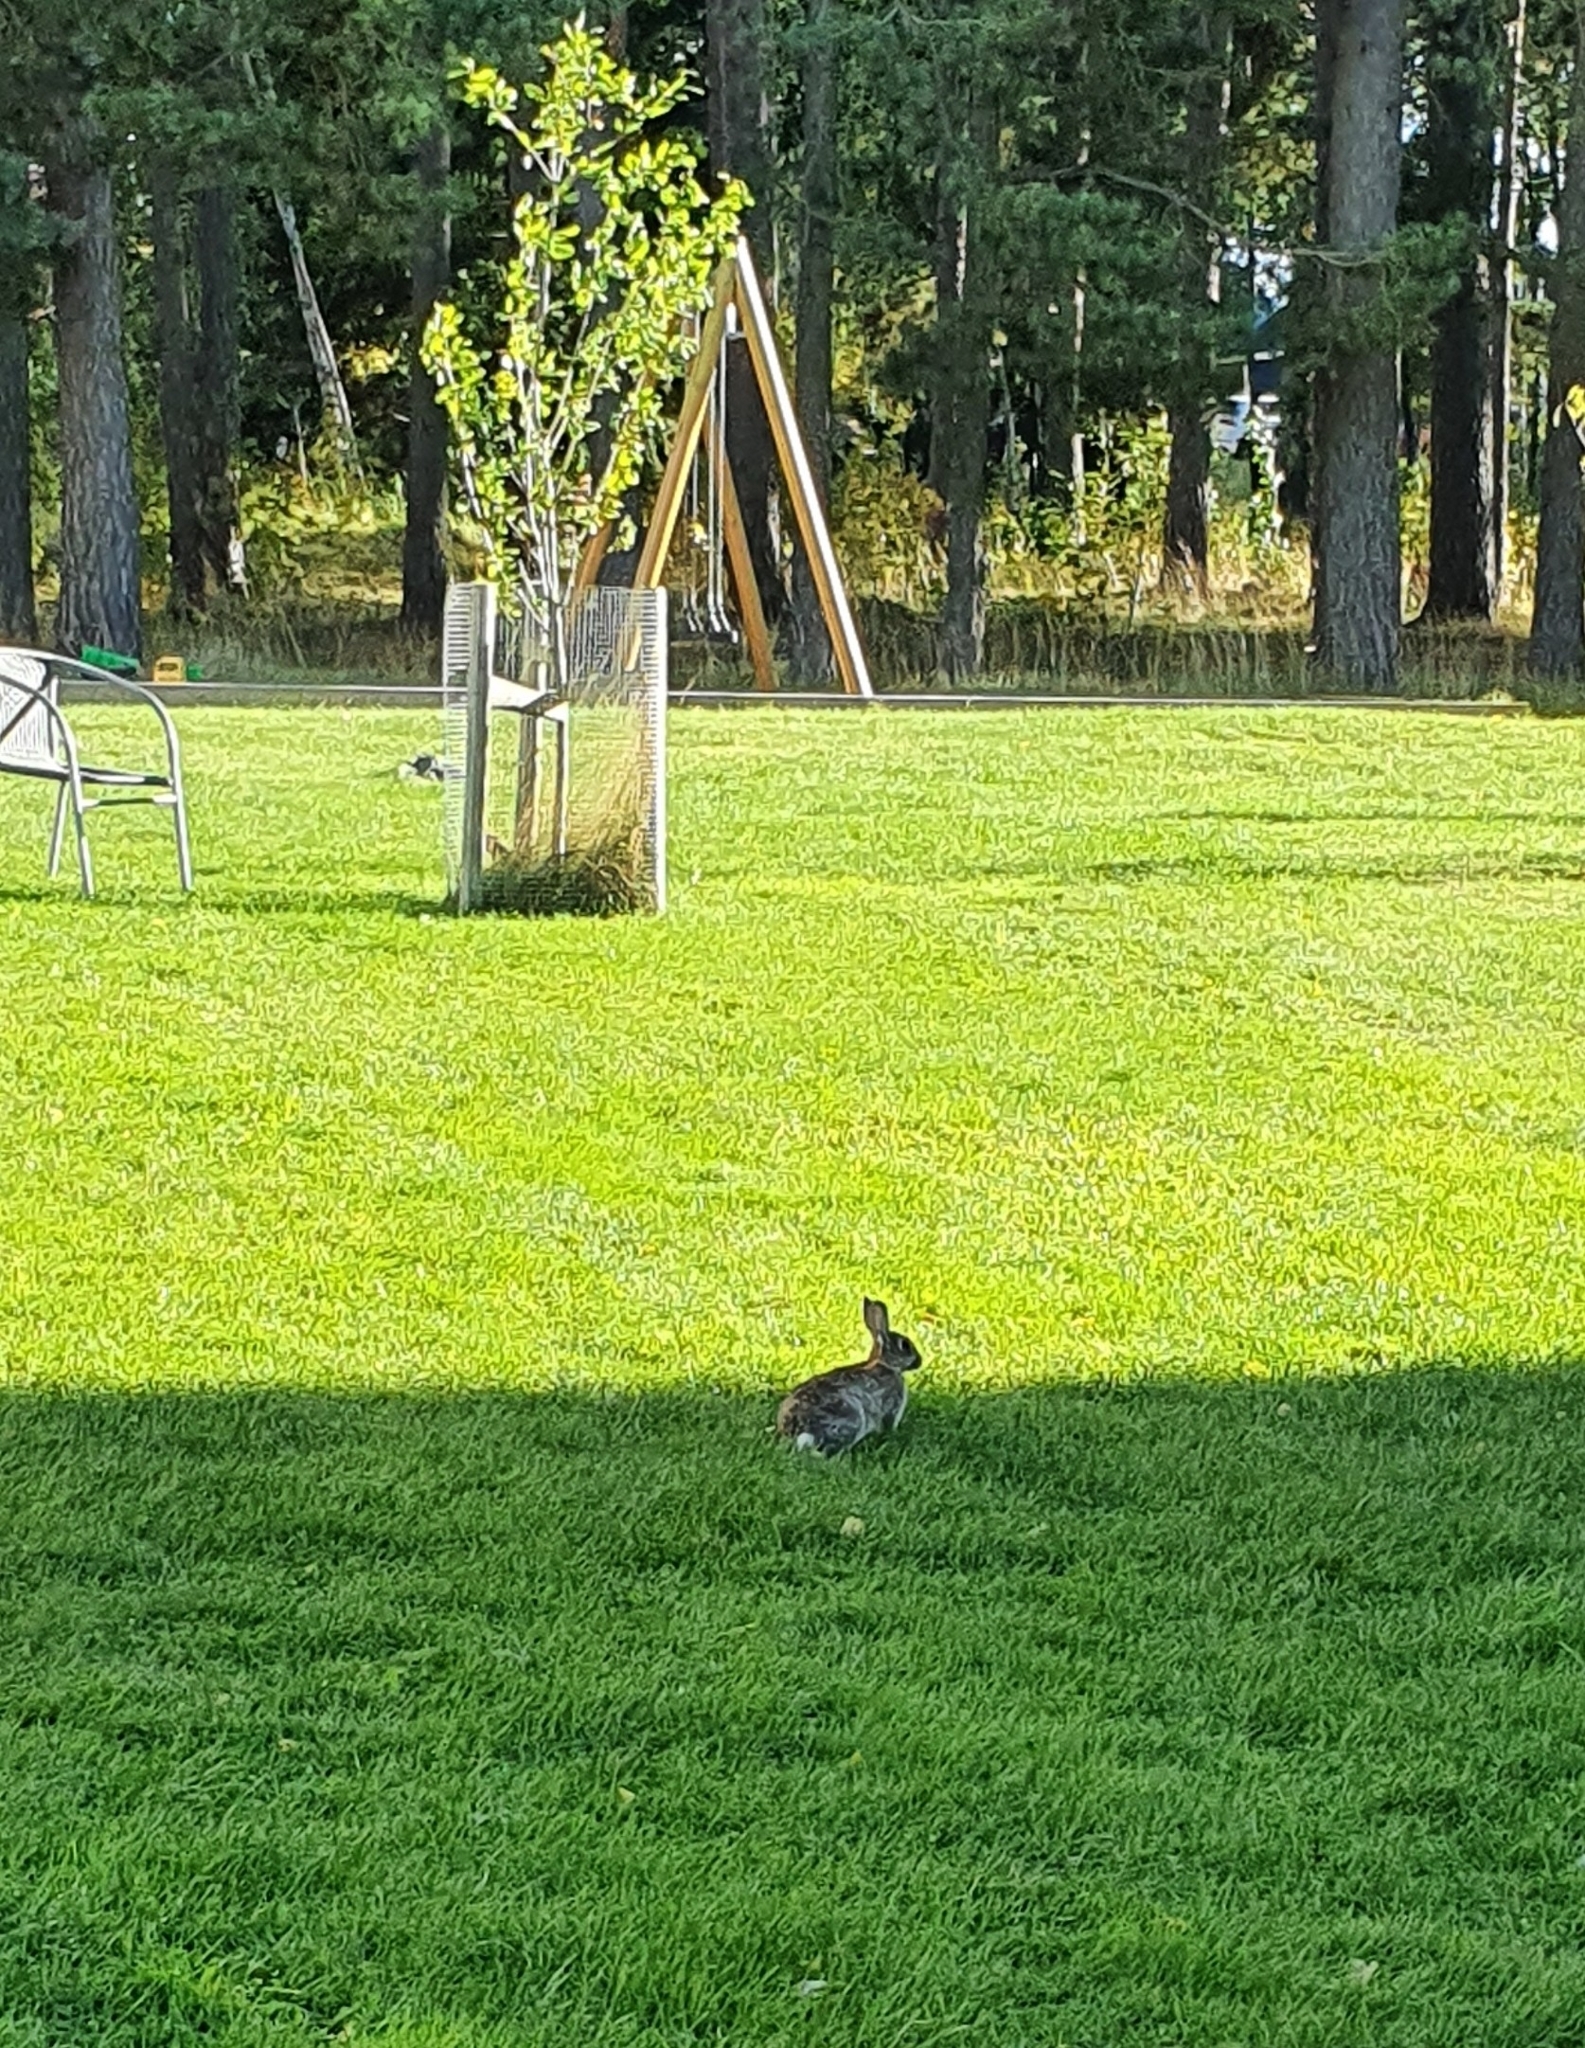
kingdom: Animalia
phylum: Chordata
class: Mammalia
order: Lagomorpha
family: Leporidae
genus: Oryctolagus
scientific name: Oryctolagus cuniculus
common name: European rabbit
